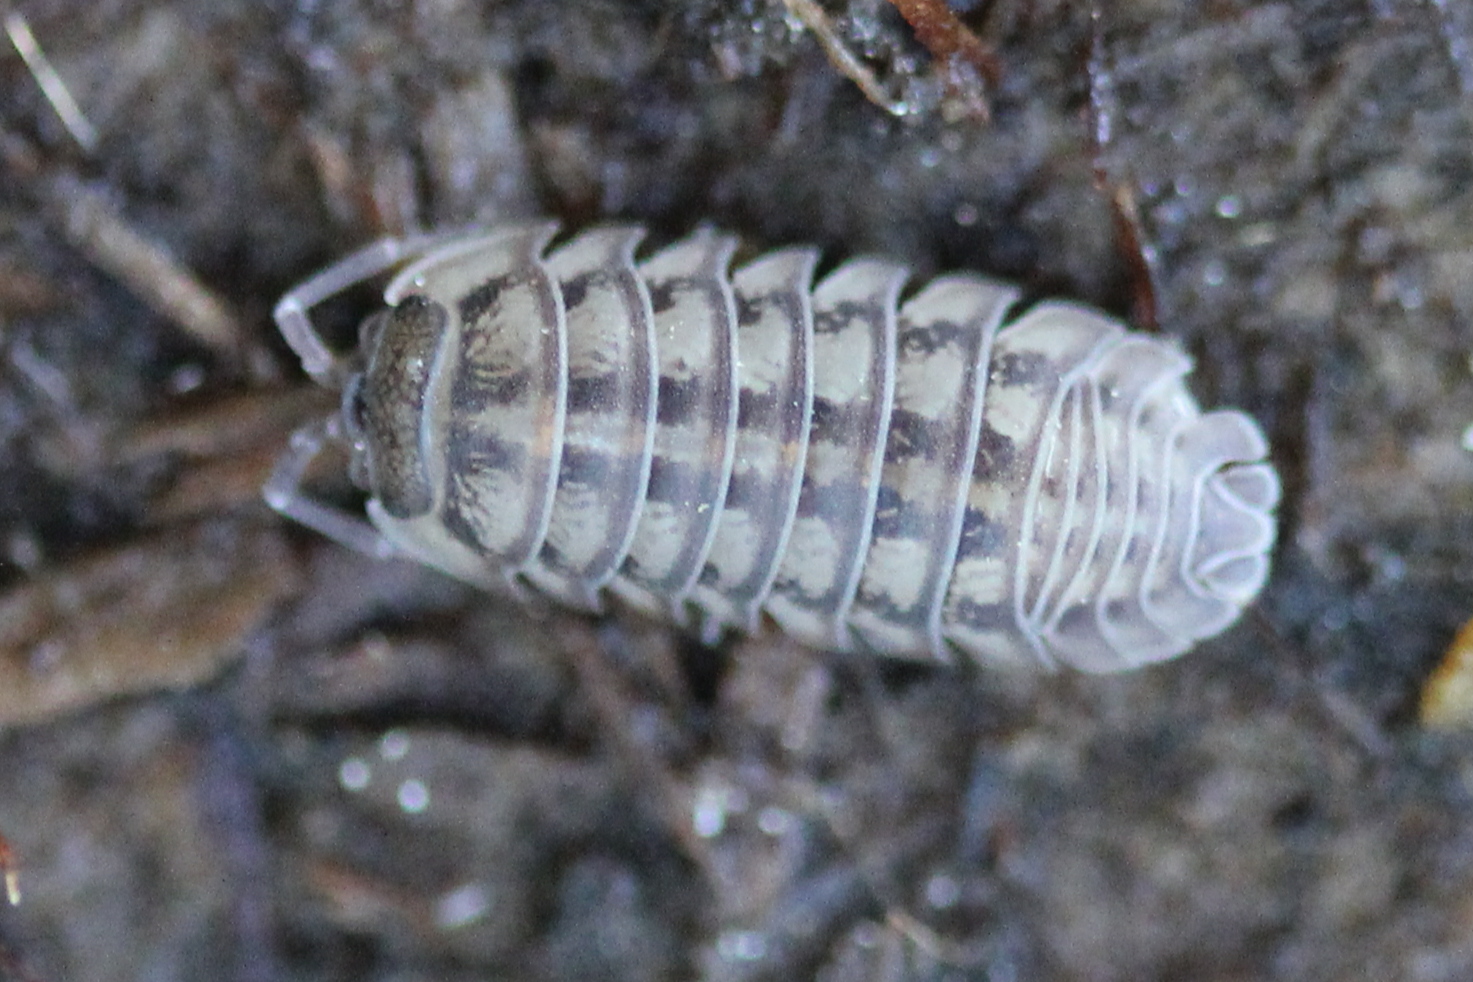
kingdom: Animalia
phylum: Arthropoda
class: Malacostraca
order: Isopoda
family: Armadillidiidae
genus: Armadillidium
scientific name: Armadillidium nasatum
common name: Isopod
